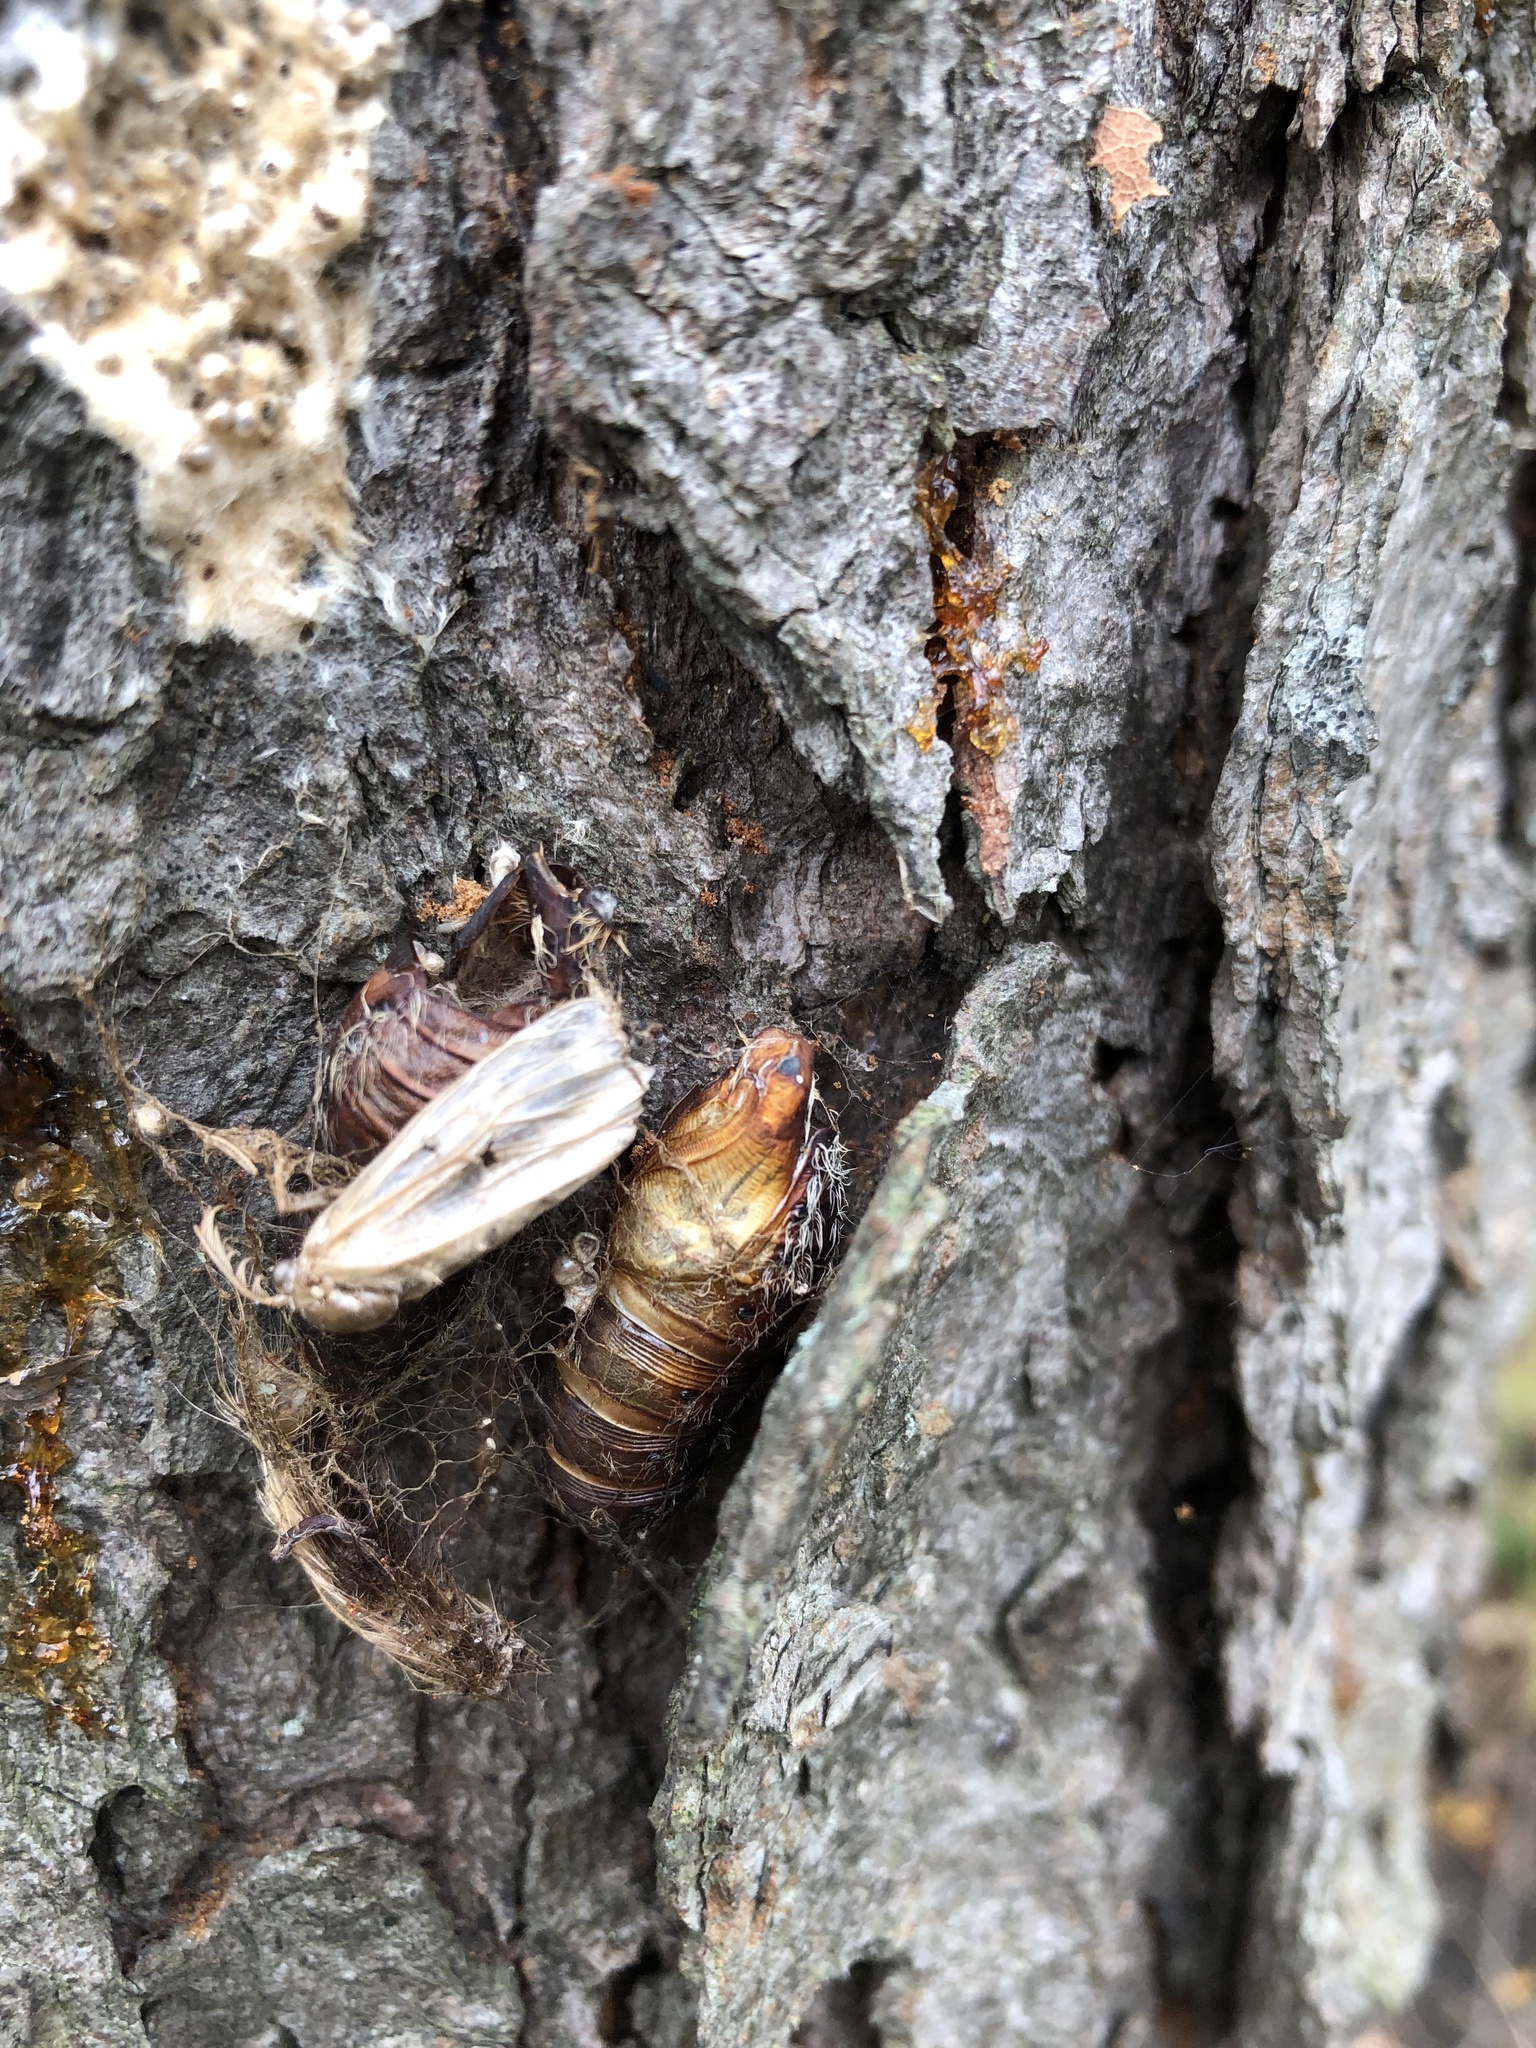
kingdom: Animalia
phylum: Arthropoda
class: Insecta
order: Lepidoptera
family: Erebidae
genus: Lymantria
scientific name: Lymantria dispar
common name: Gypsy moth
